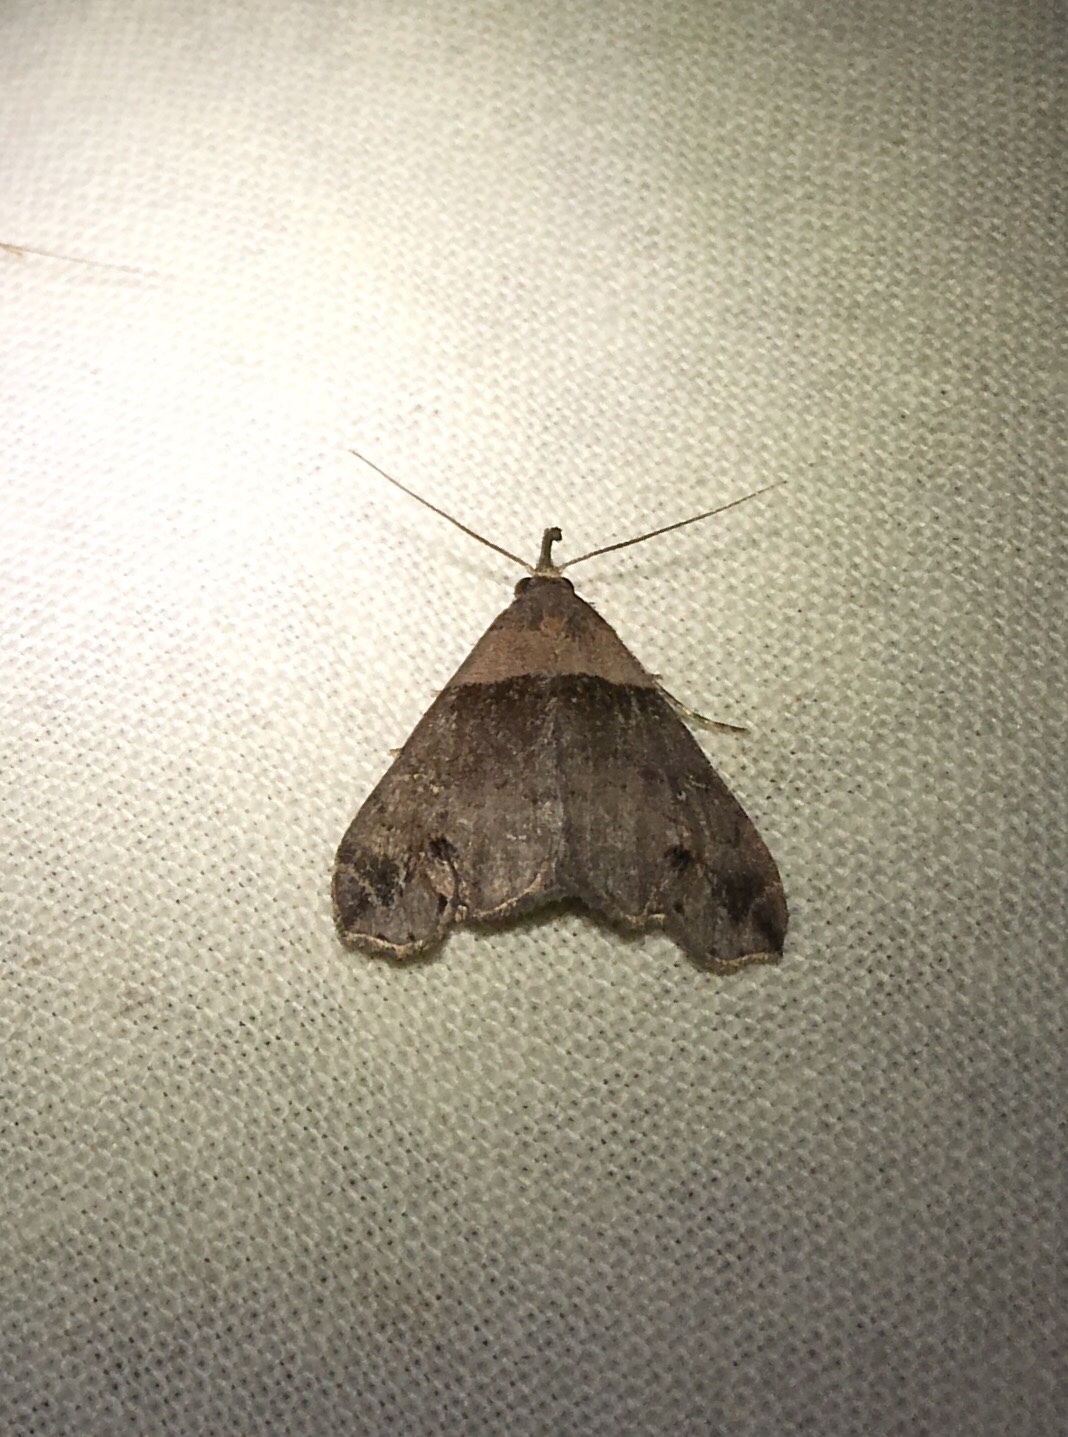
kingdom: Animalia
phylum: Arthropoda
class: Insecta
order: Lepidoptera
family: Erebidae
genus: Lascoria
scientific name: Lascoria ambigualis
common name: Ambiguous moth
